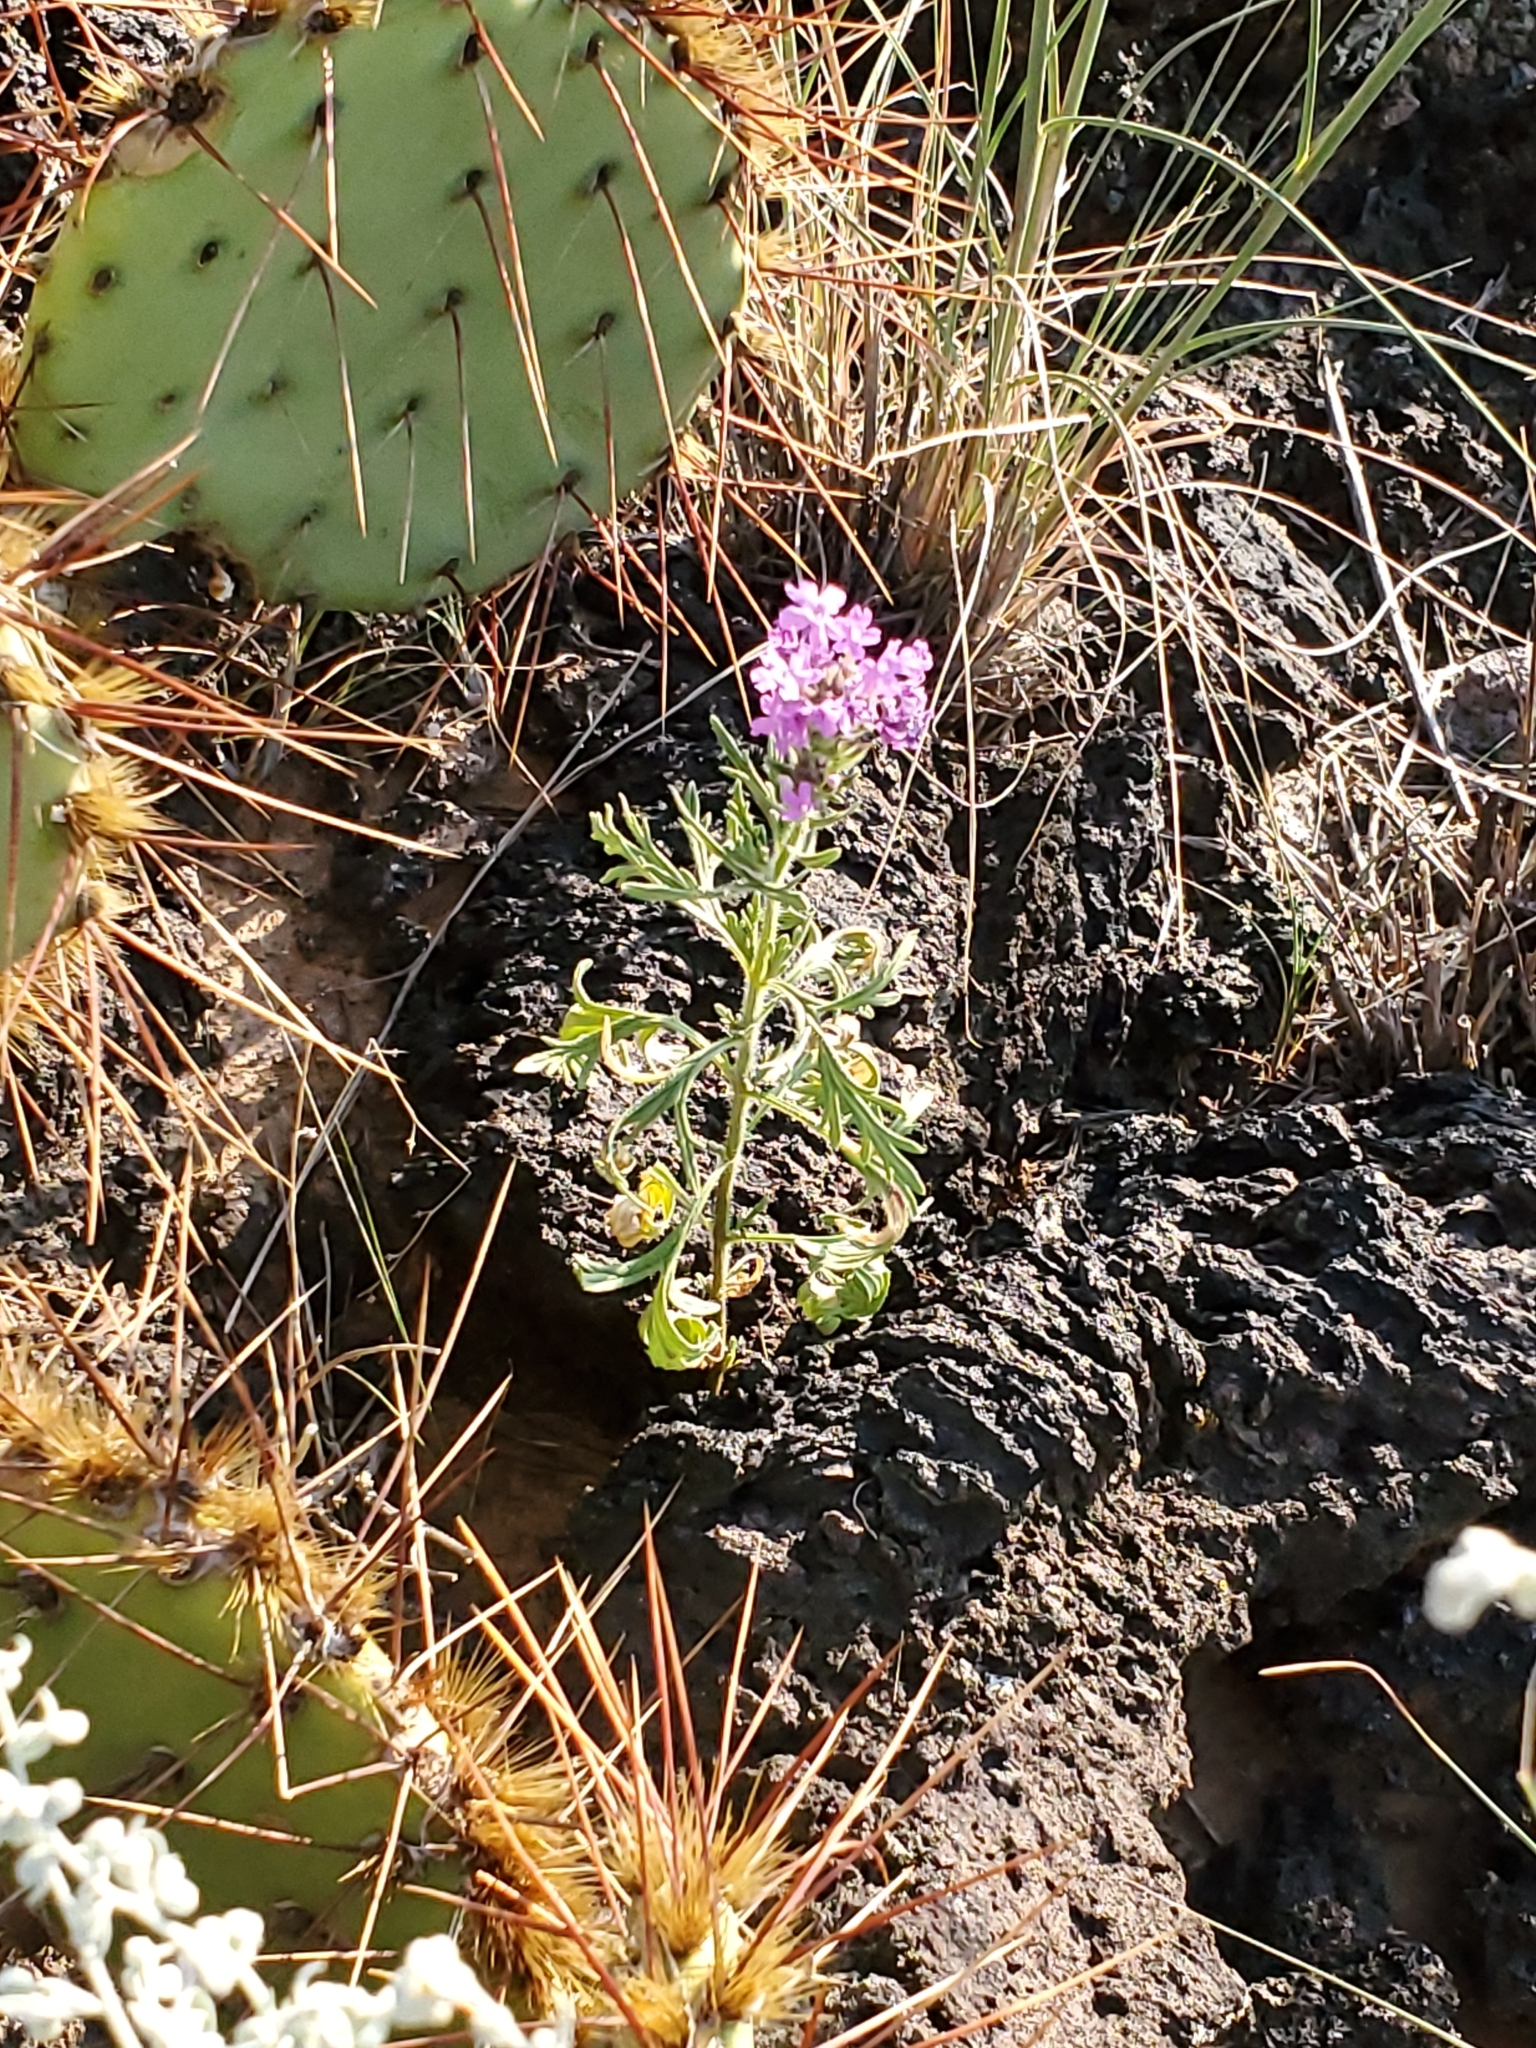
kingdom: Plantae
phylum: Tracheophyta
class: Magnoliopsida
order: Lamiales
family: Verbenaceae
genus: Verbena
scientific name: Verbena bipinnatifida
